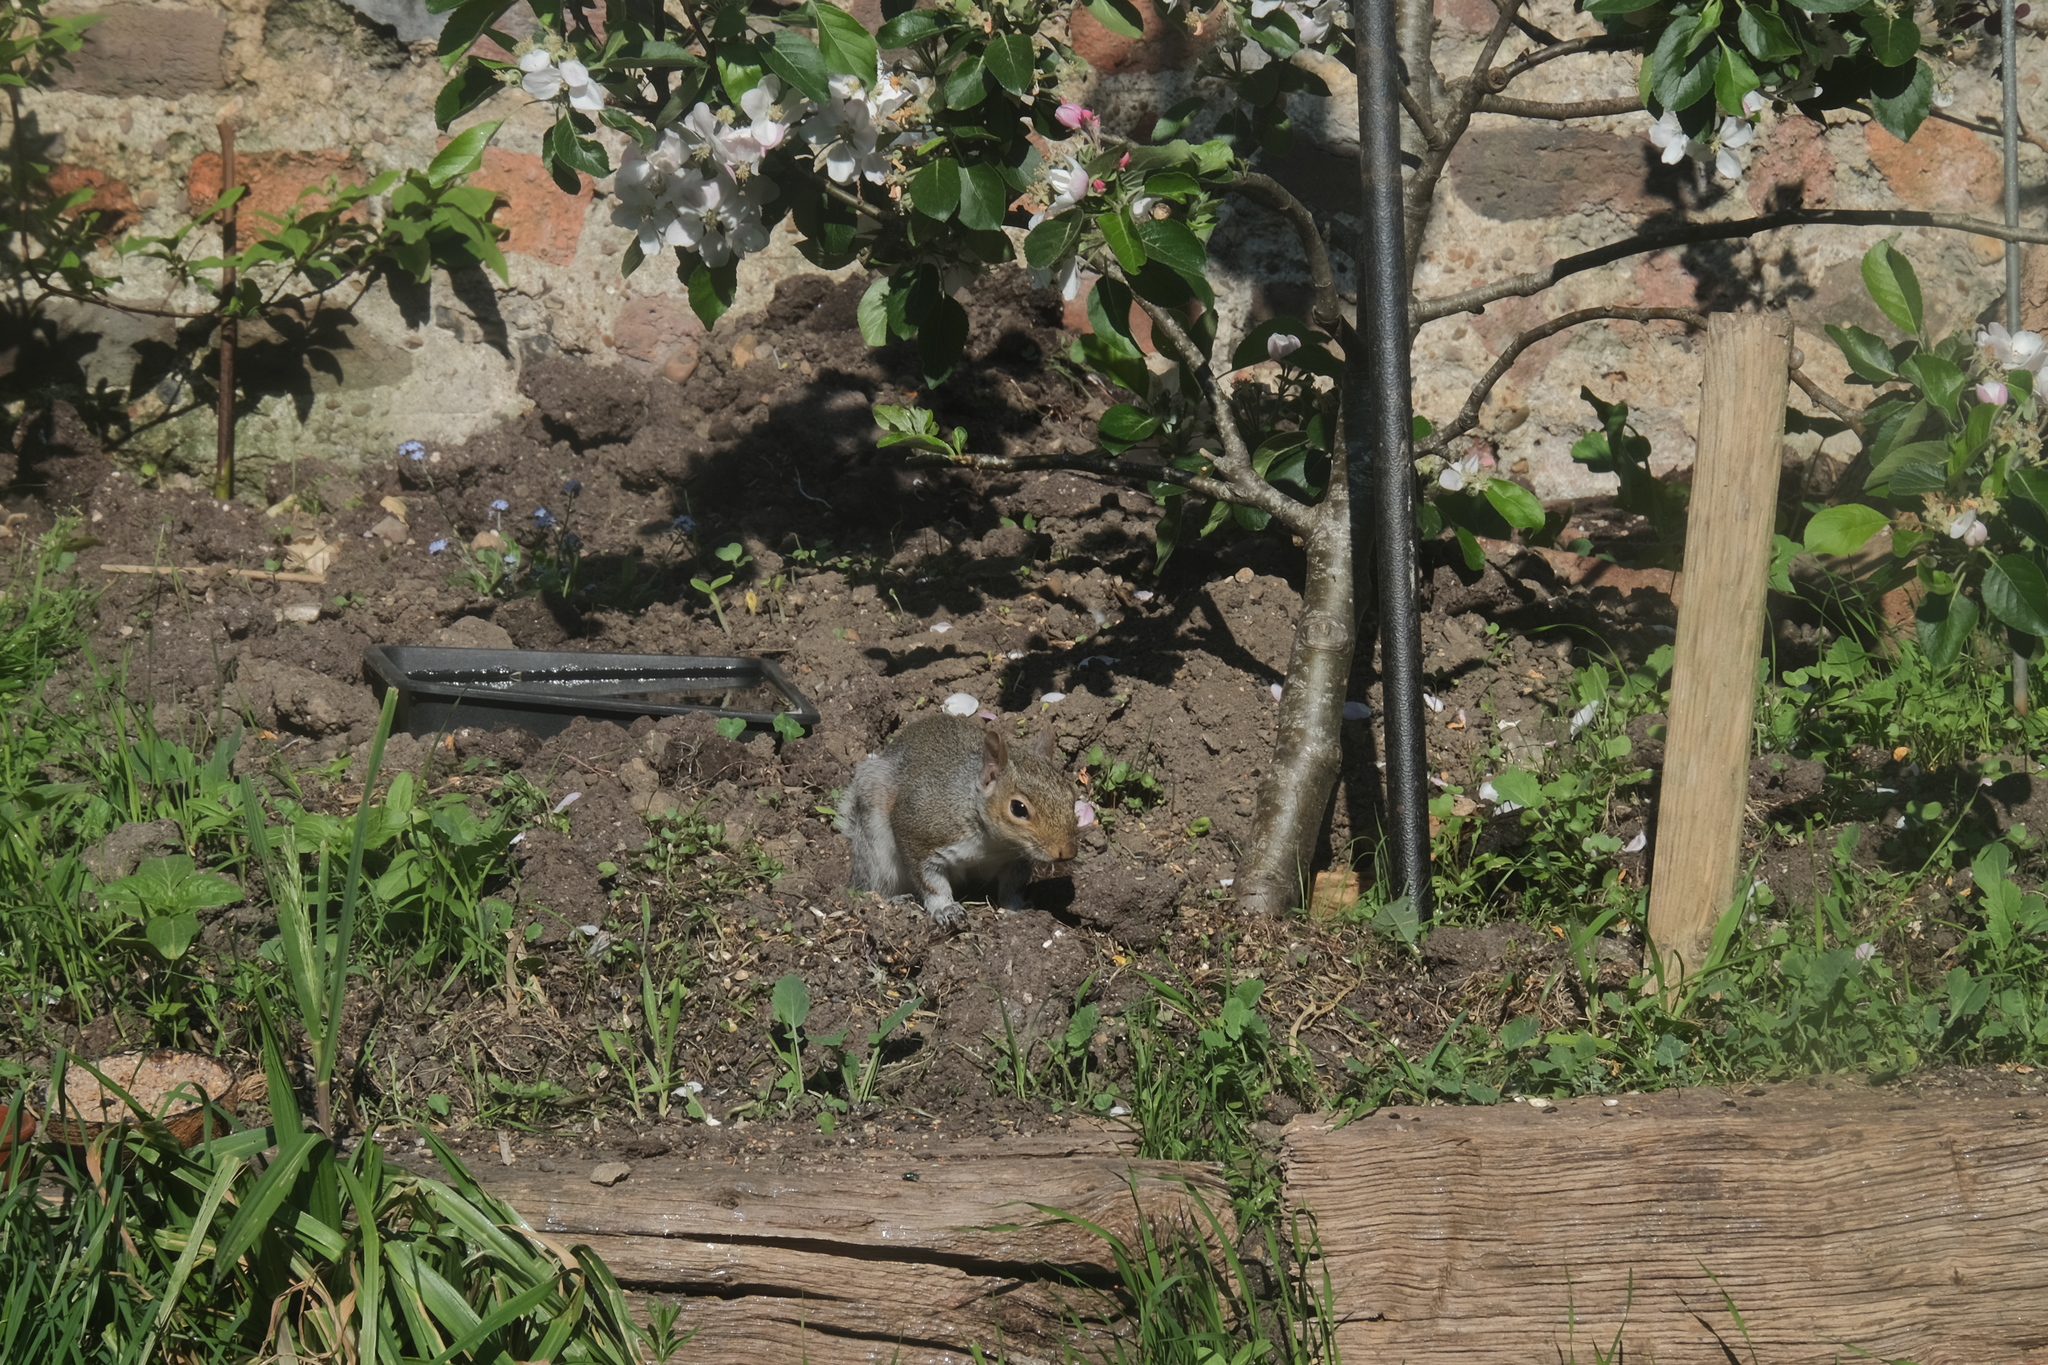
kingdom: Animalia
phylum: Chordata
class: Mammalia
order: Rodentia
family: Sciuridae
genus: Sciurus
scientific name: Sciurus carolinensis
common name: Eastern gray squirrel
